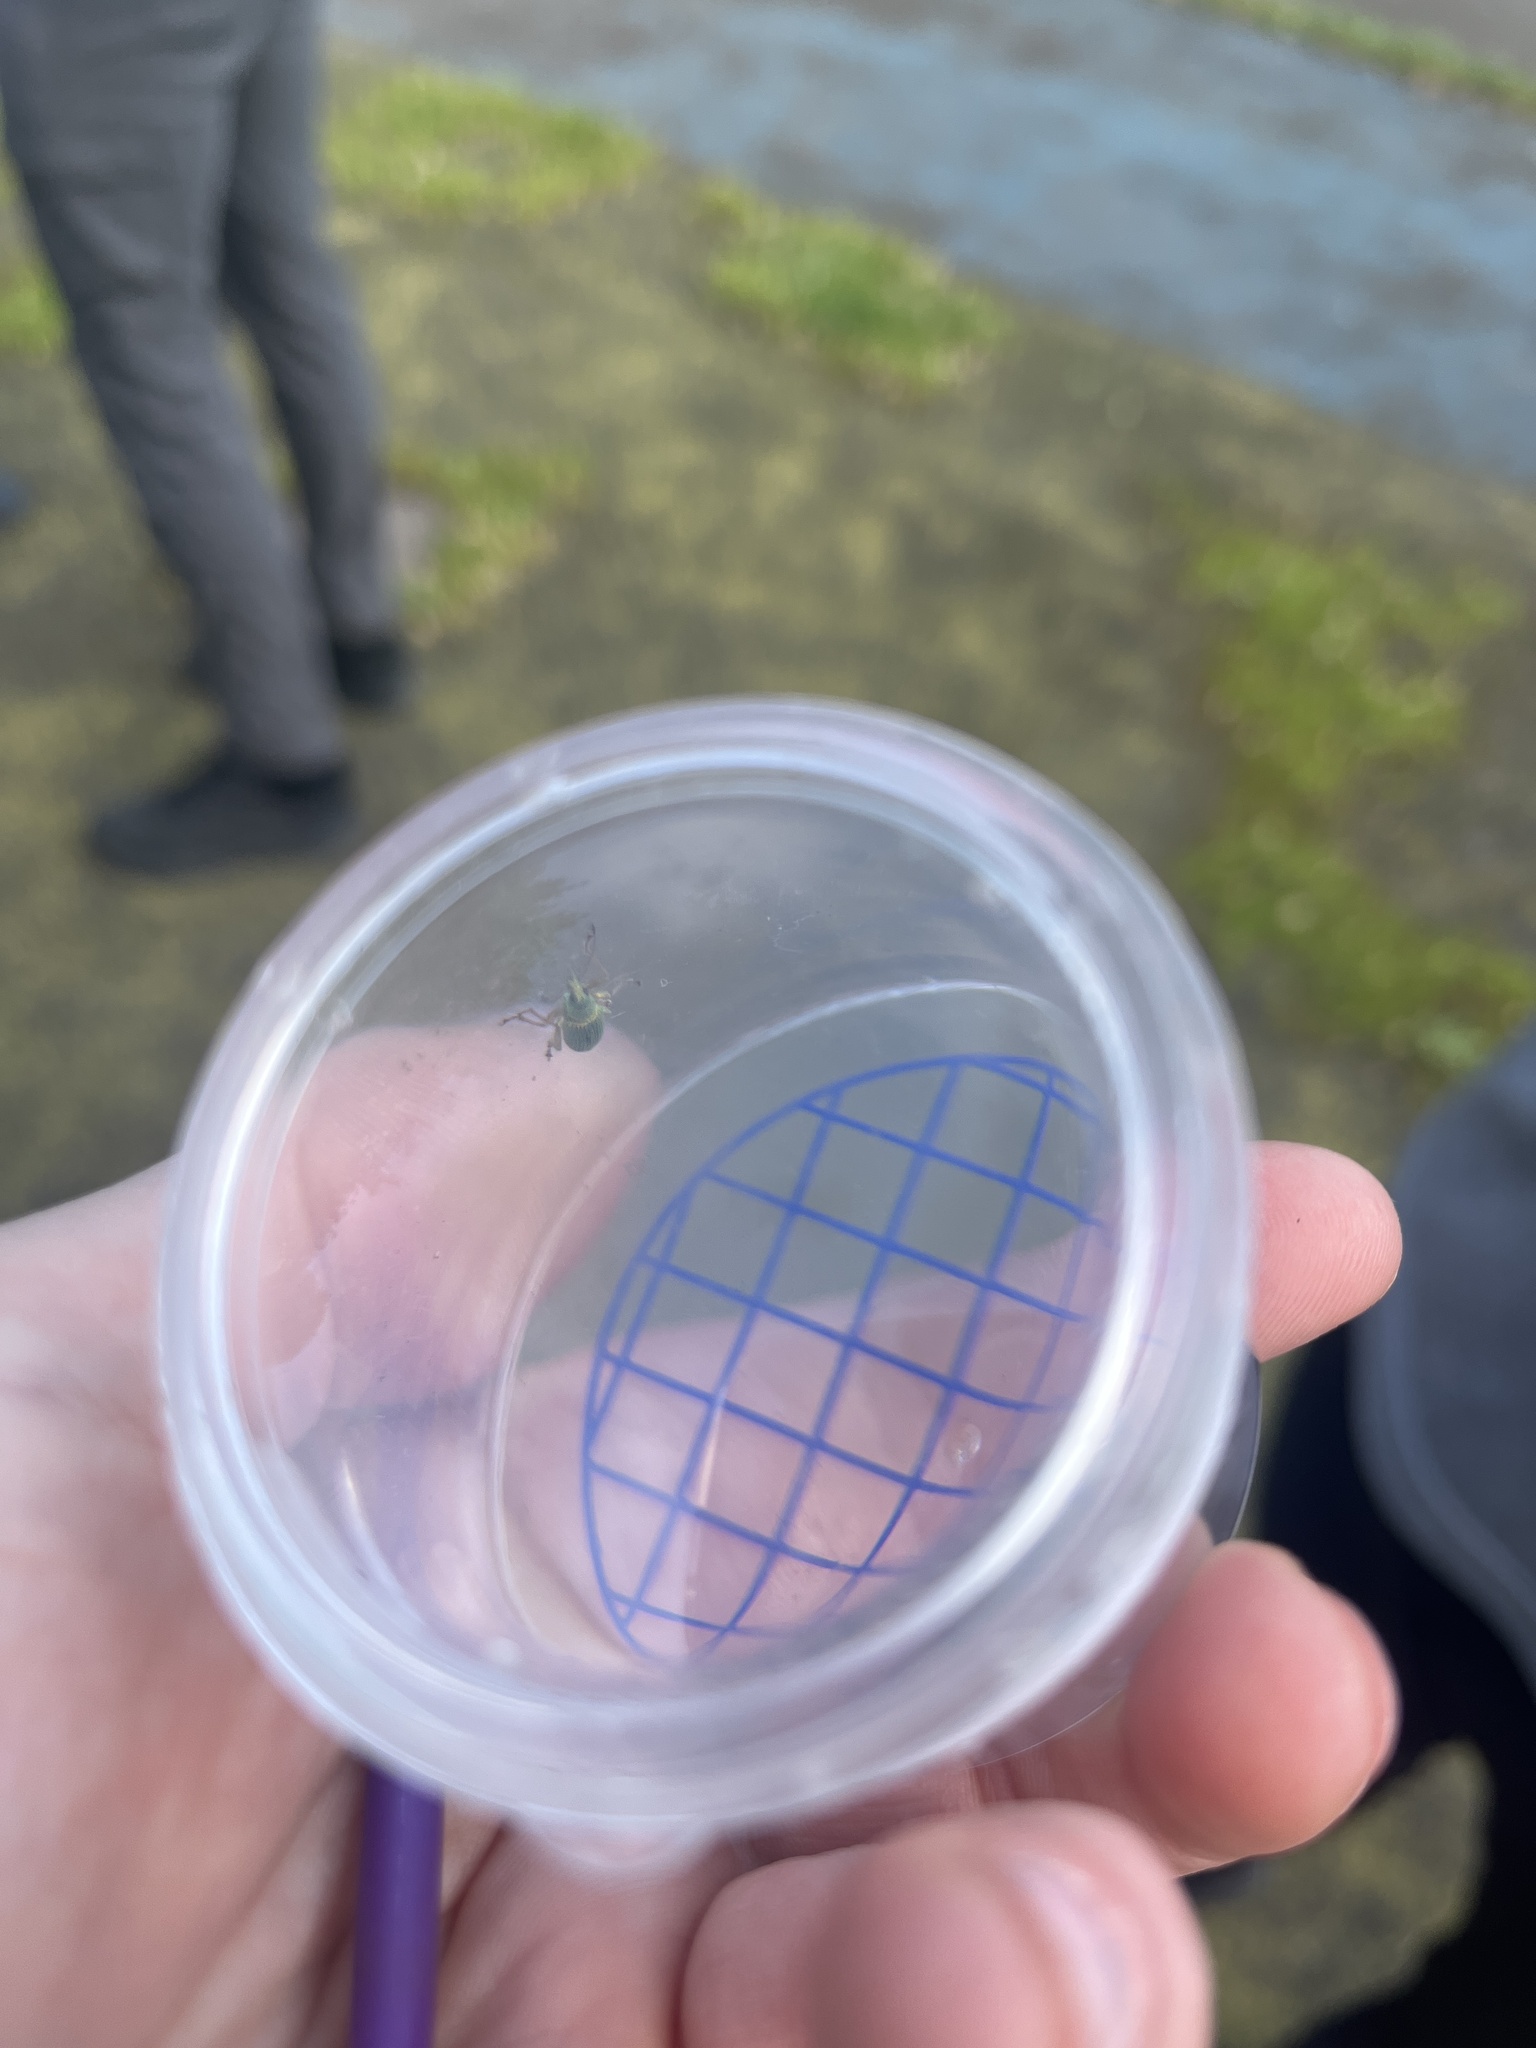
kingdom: Animalia
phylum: Arthropoda
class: Insecta
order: Coleoptera
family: Curculionidae
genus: Polydrusus
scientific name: Polydrusus formosus
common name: Weevil
